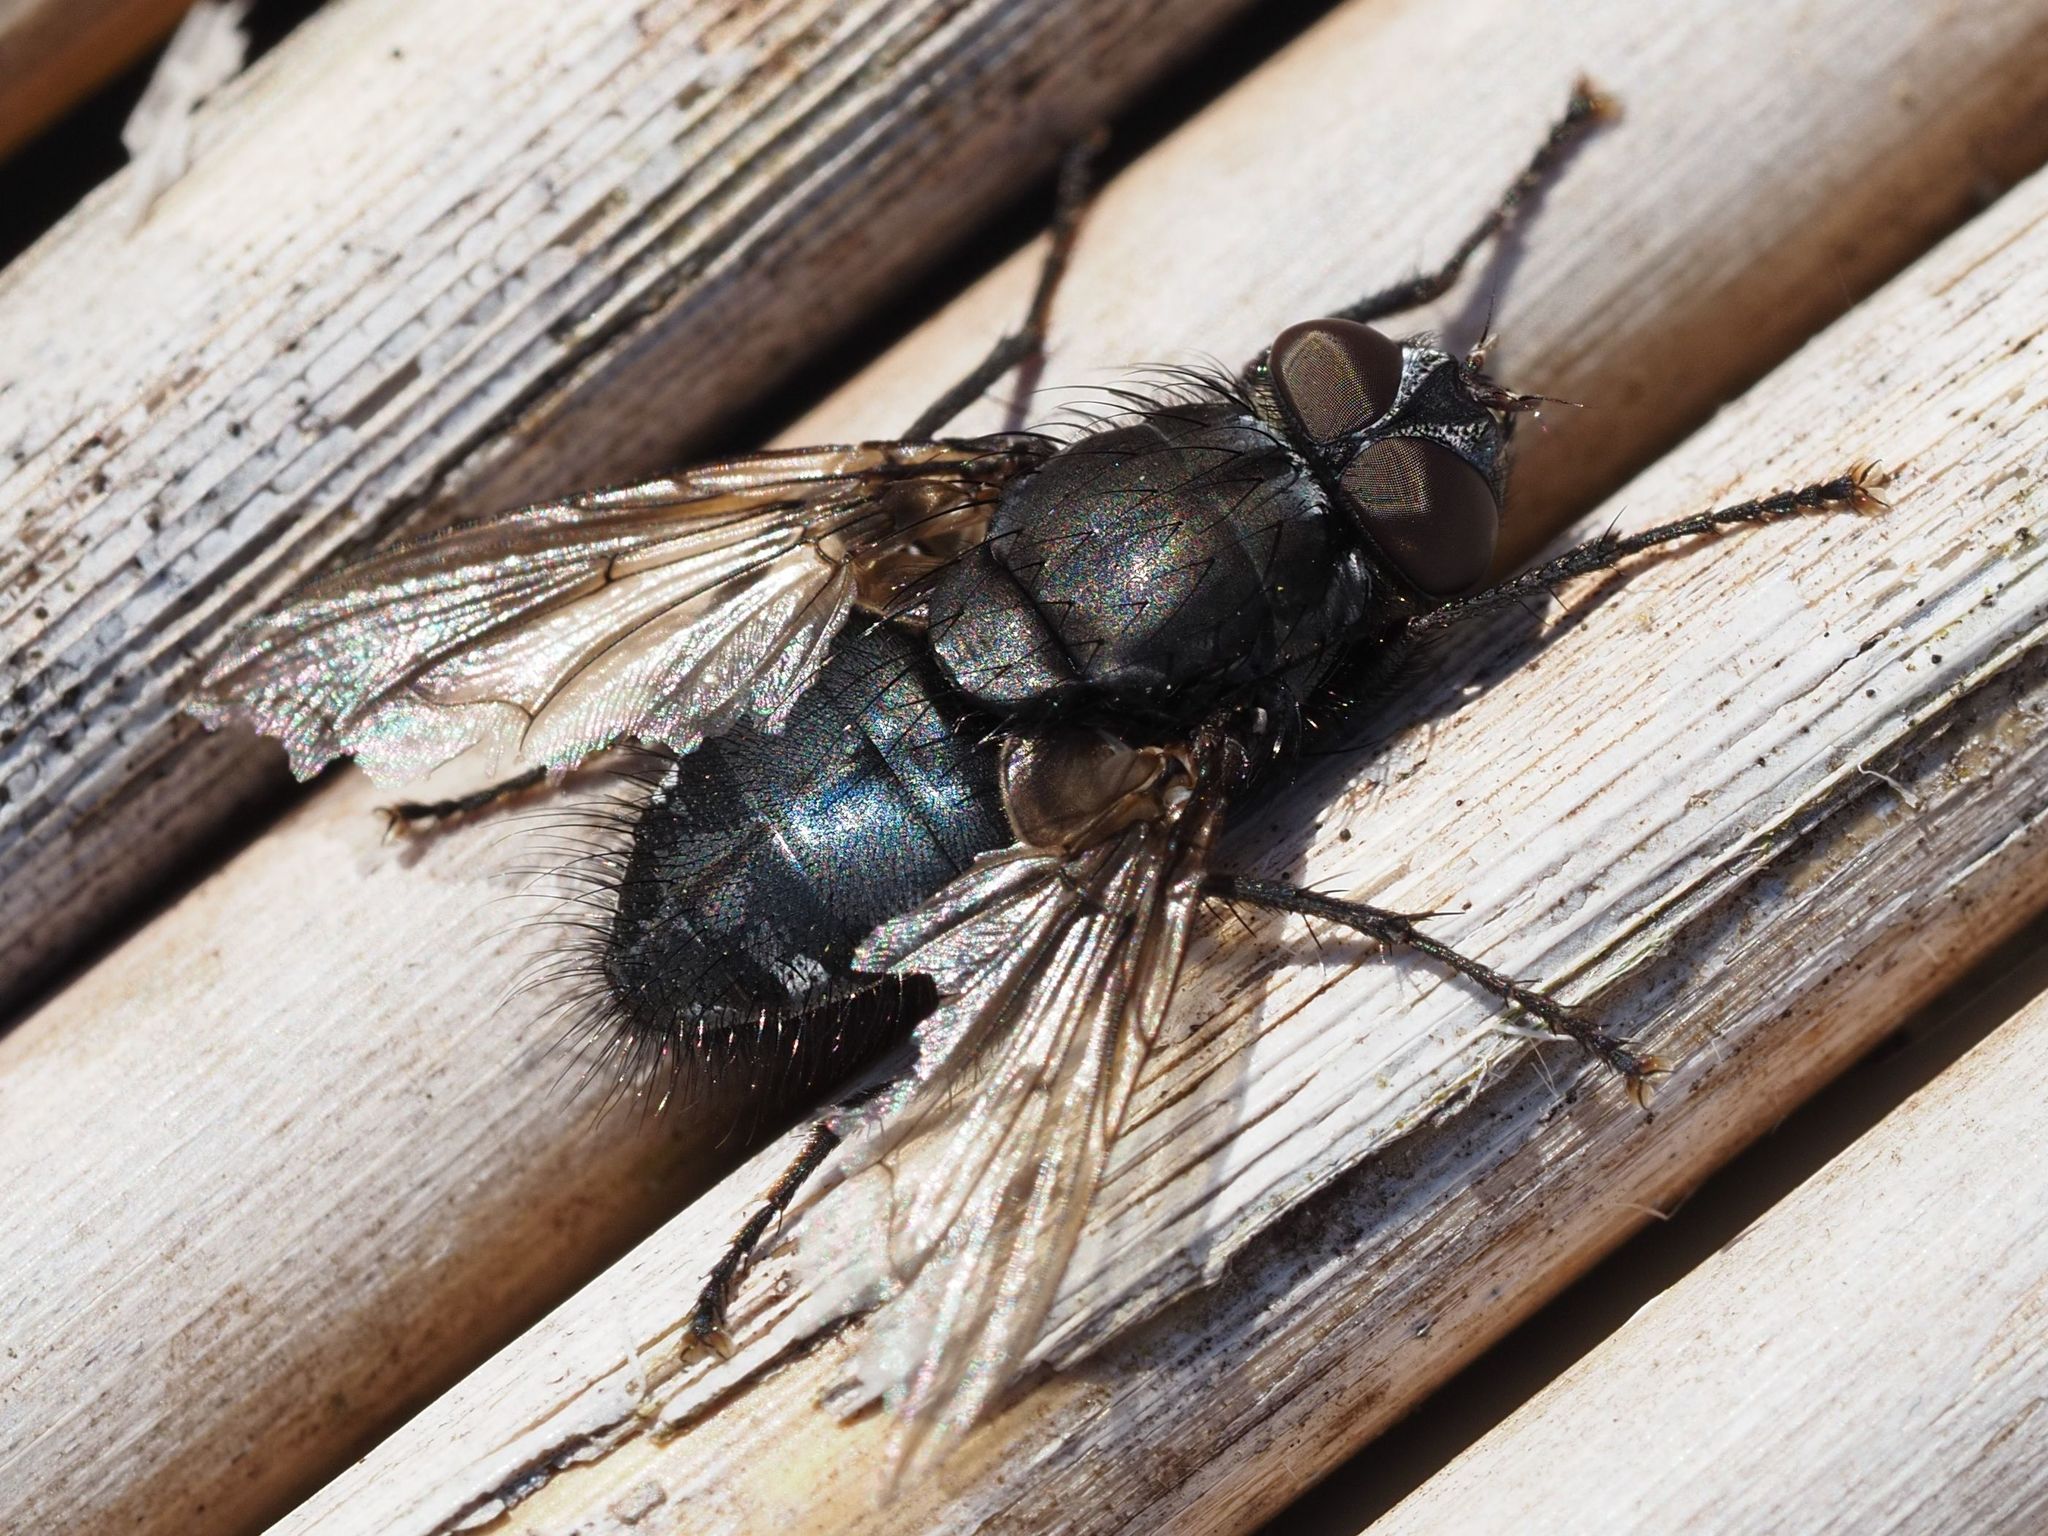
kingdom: Animalia
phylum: Arthropoda
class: Insecta
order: Diptera
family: Polleniidae
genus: Pollenia
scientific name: Pollenia vagabunda
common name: Vagabund cluster fly
